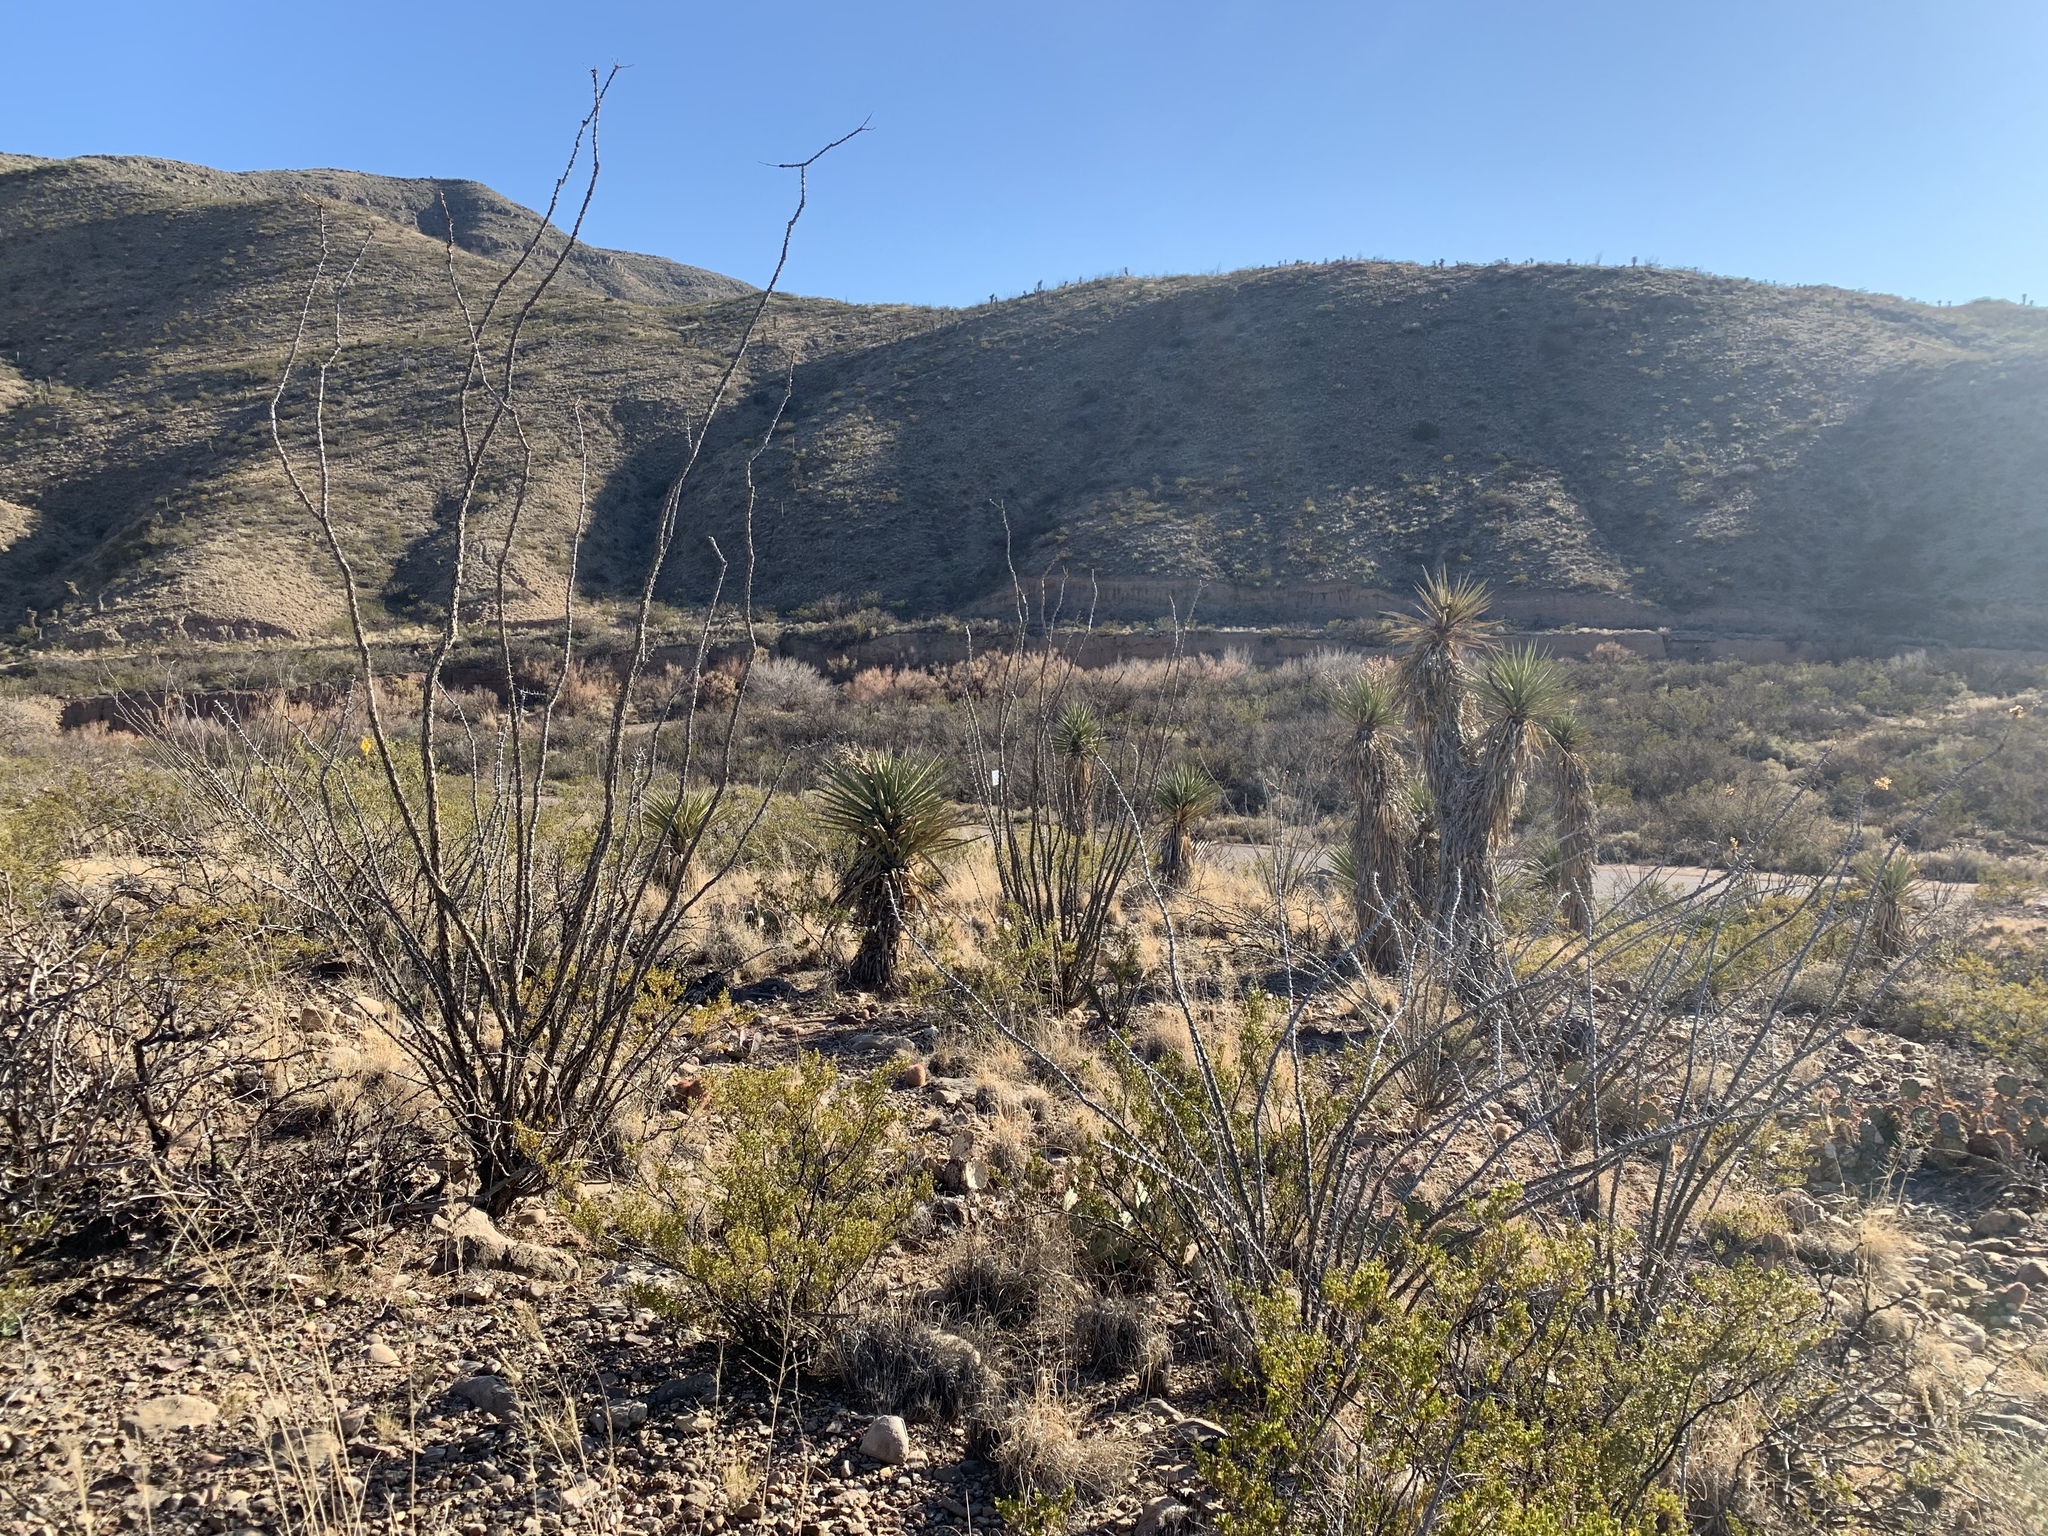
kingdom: Plantae
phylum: Tracheophyta
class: Magnoliopsida
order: Ericales
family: Fouquieriaceae
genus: Fouquieria
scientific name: Fouquieria splendens
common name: Vine-cactus
